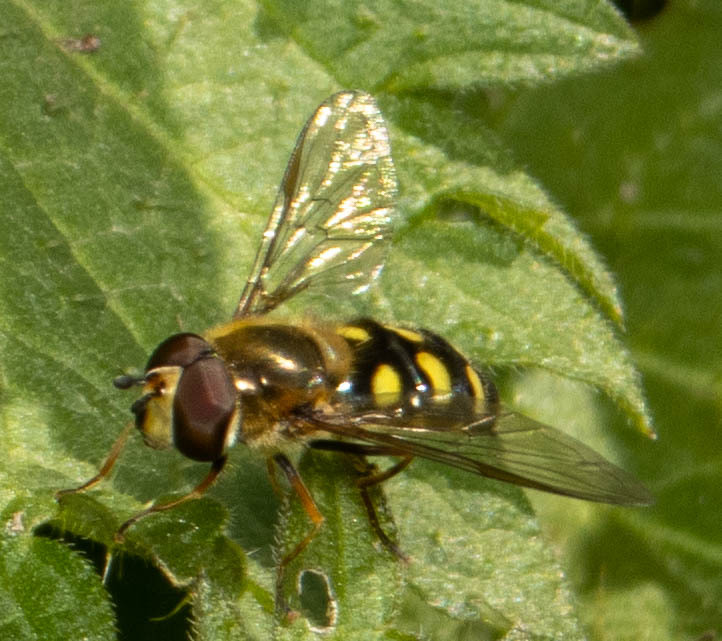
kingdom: Animalia
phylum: Arthropoda
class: Insecta
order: Diptera
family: Syrphidae
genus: Eupeodes
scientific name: Eupeodes
